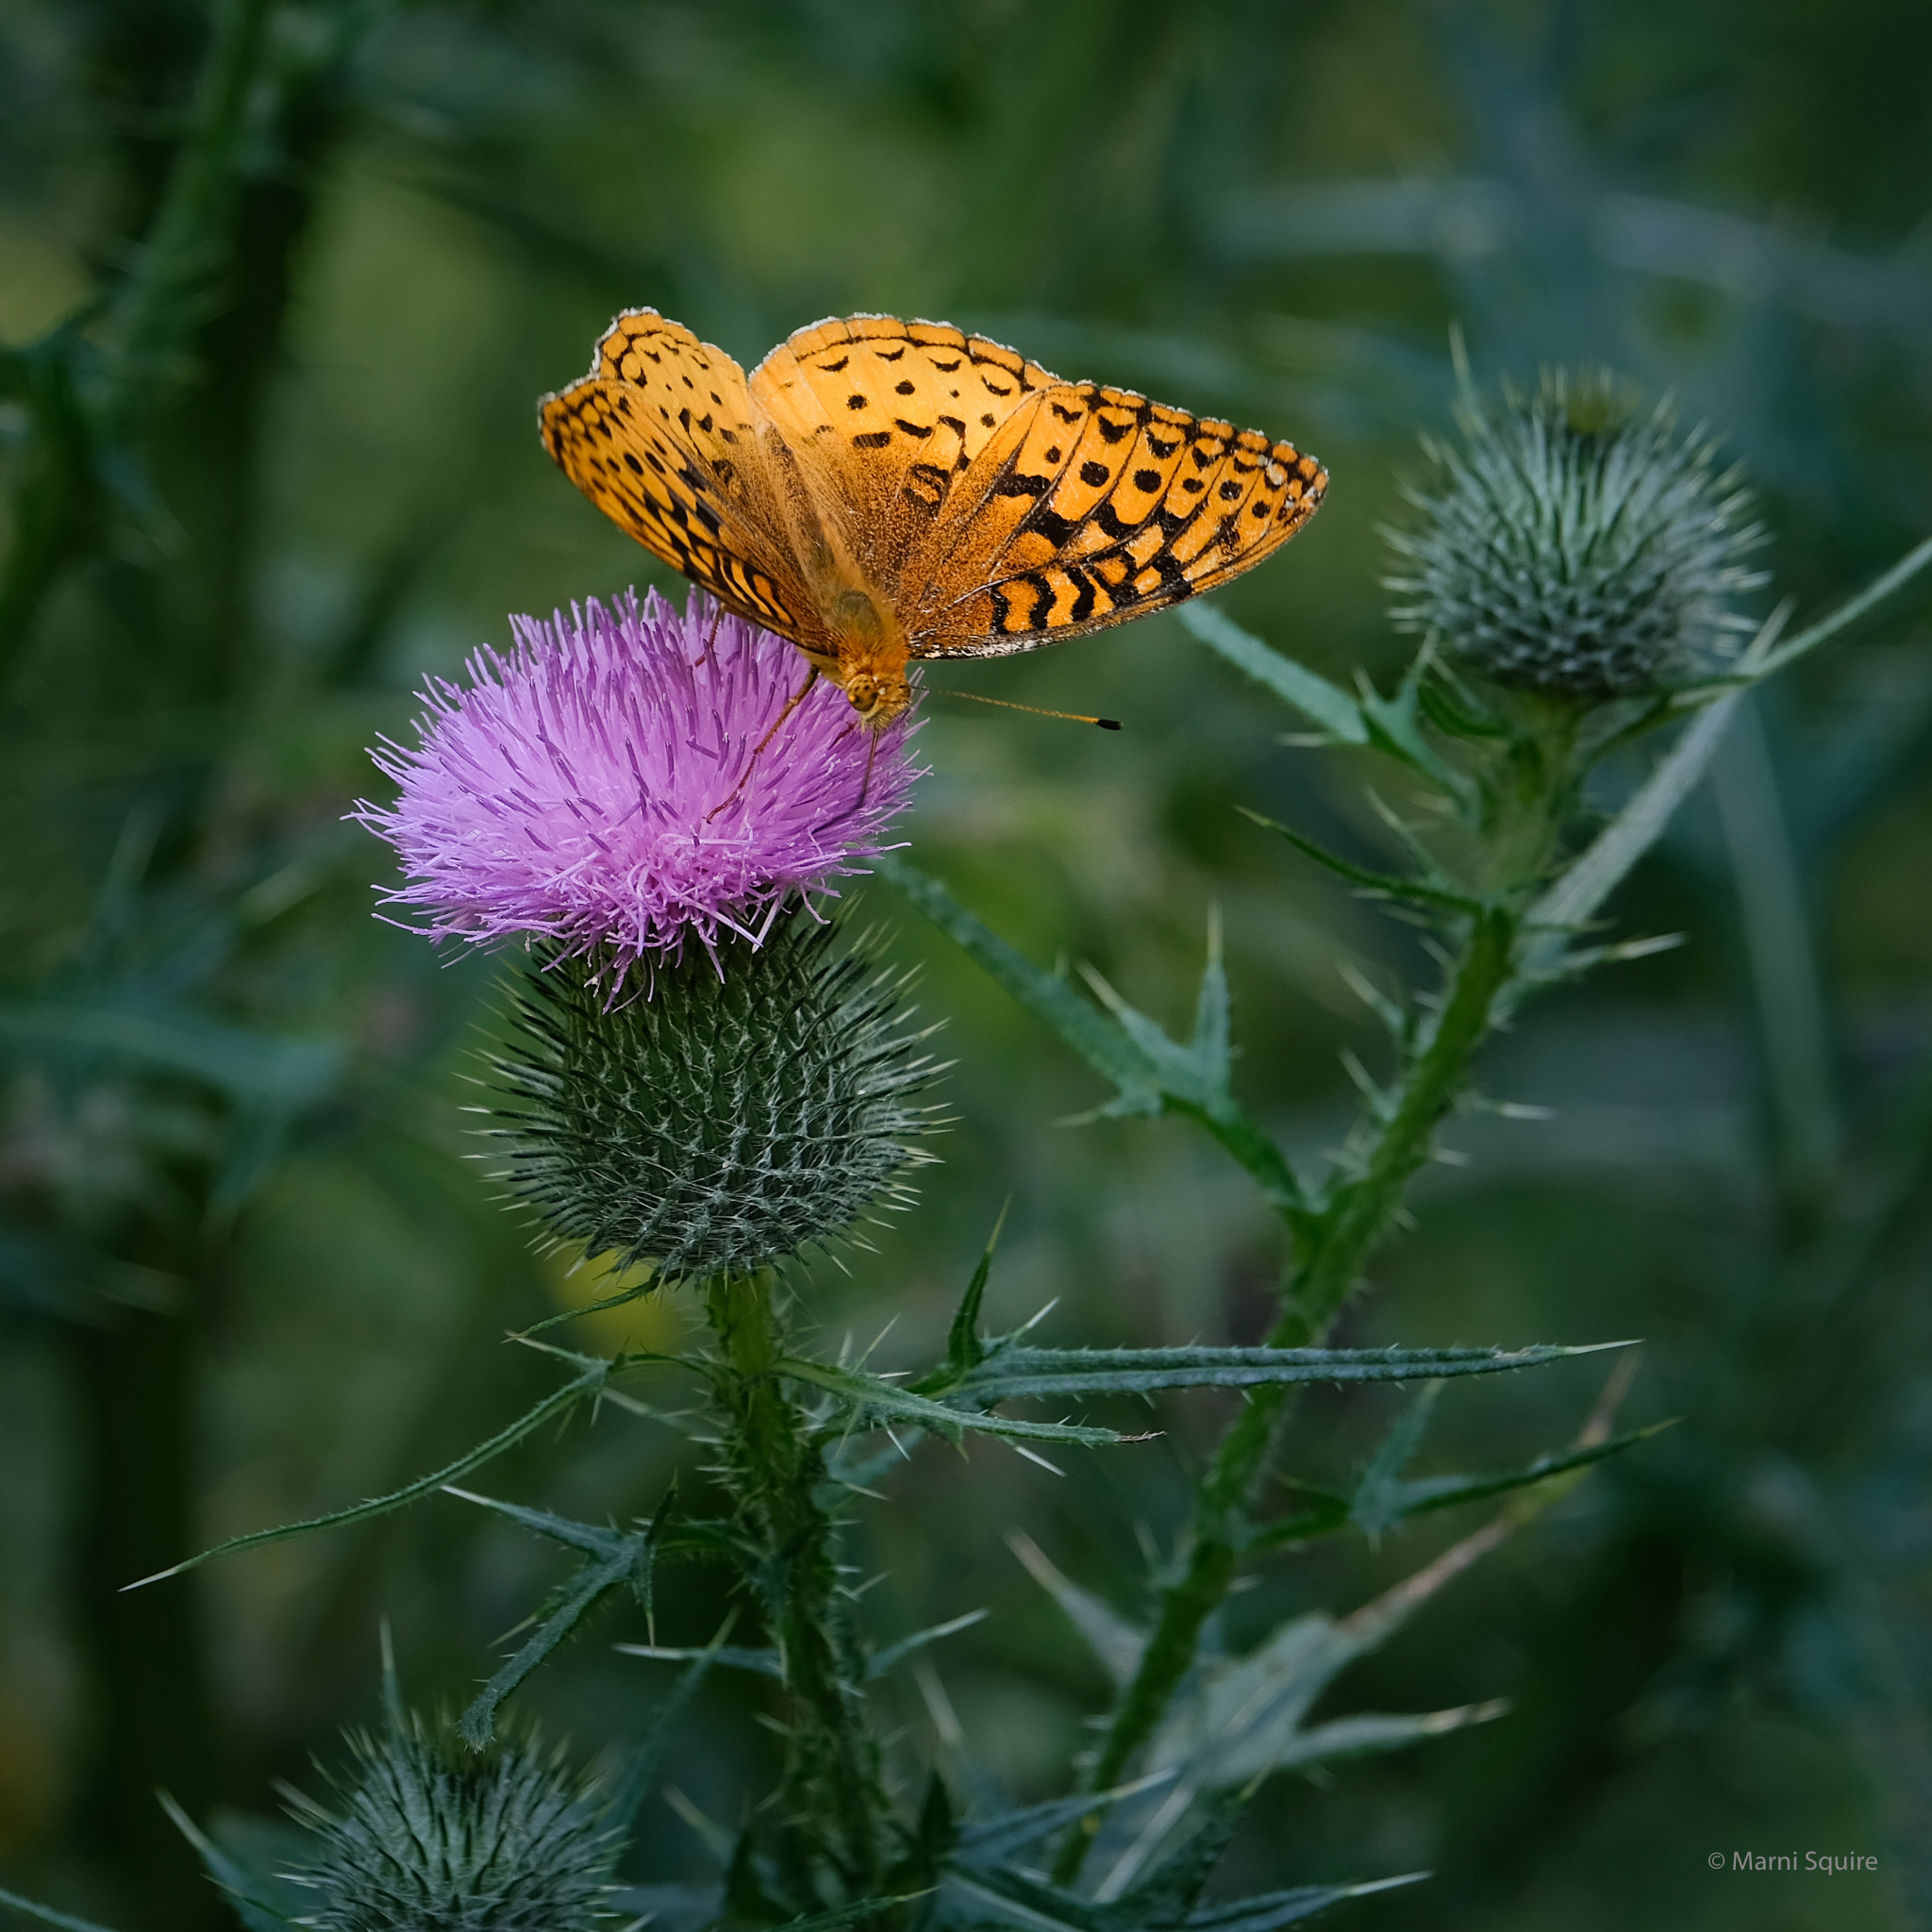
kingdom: Animalia
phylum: Arthropoda
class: Insecta
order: Lepidoptera
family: Nymphalidae
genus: Speyeria
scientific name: Speyeria cybele
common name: Great spangled fritillary
